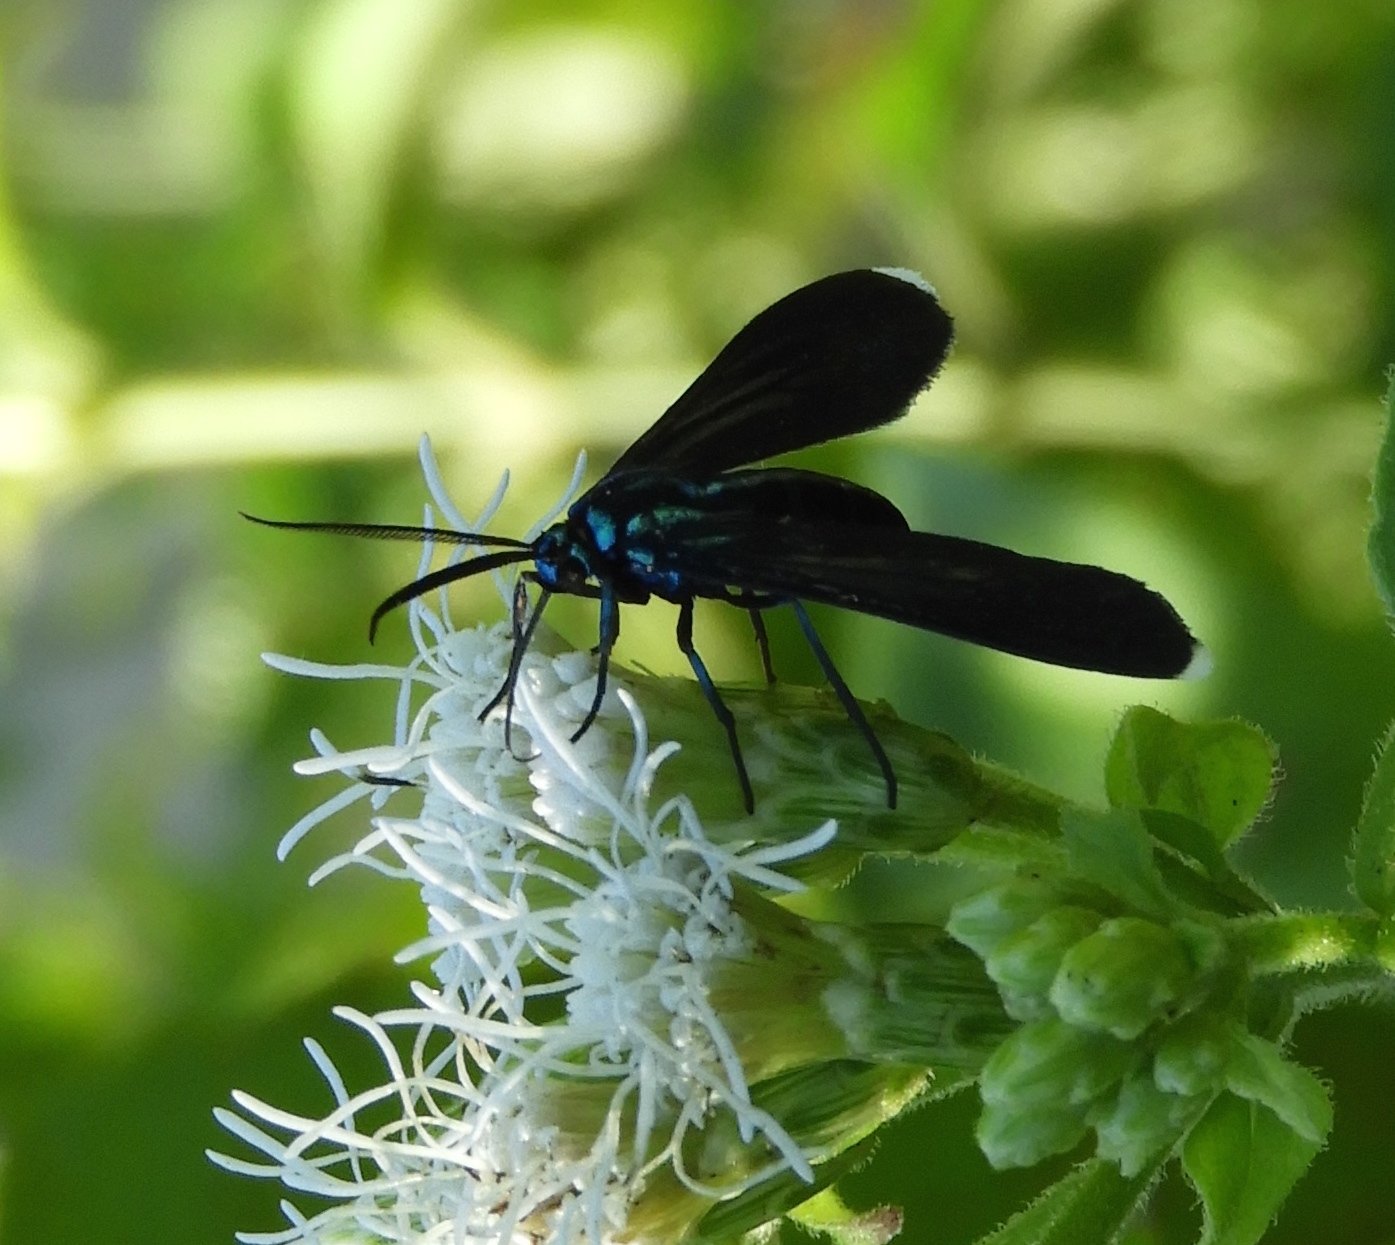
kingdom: Animalia
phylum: Arthropoda
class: Insecta
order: Lepidoptera
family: Erebidae
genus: Uranophora
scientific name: Uranophora leucotela
